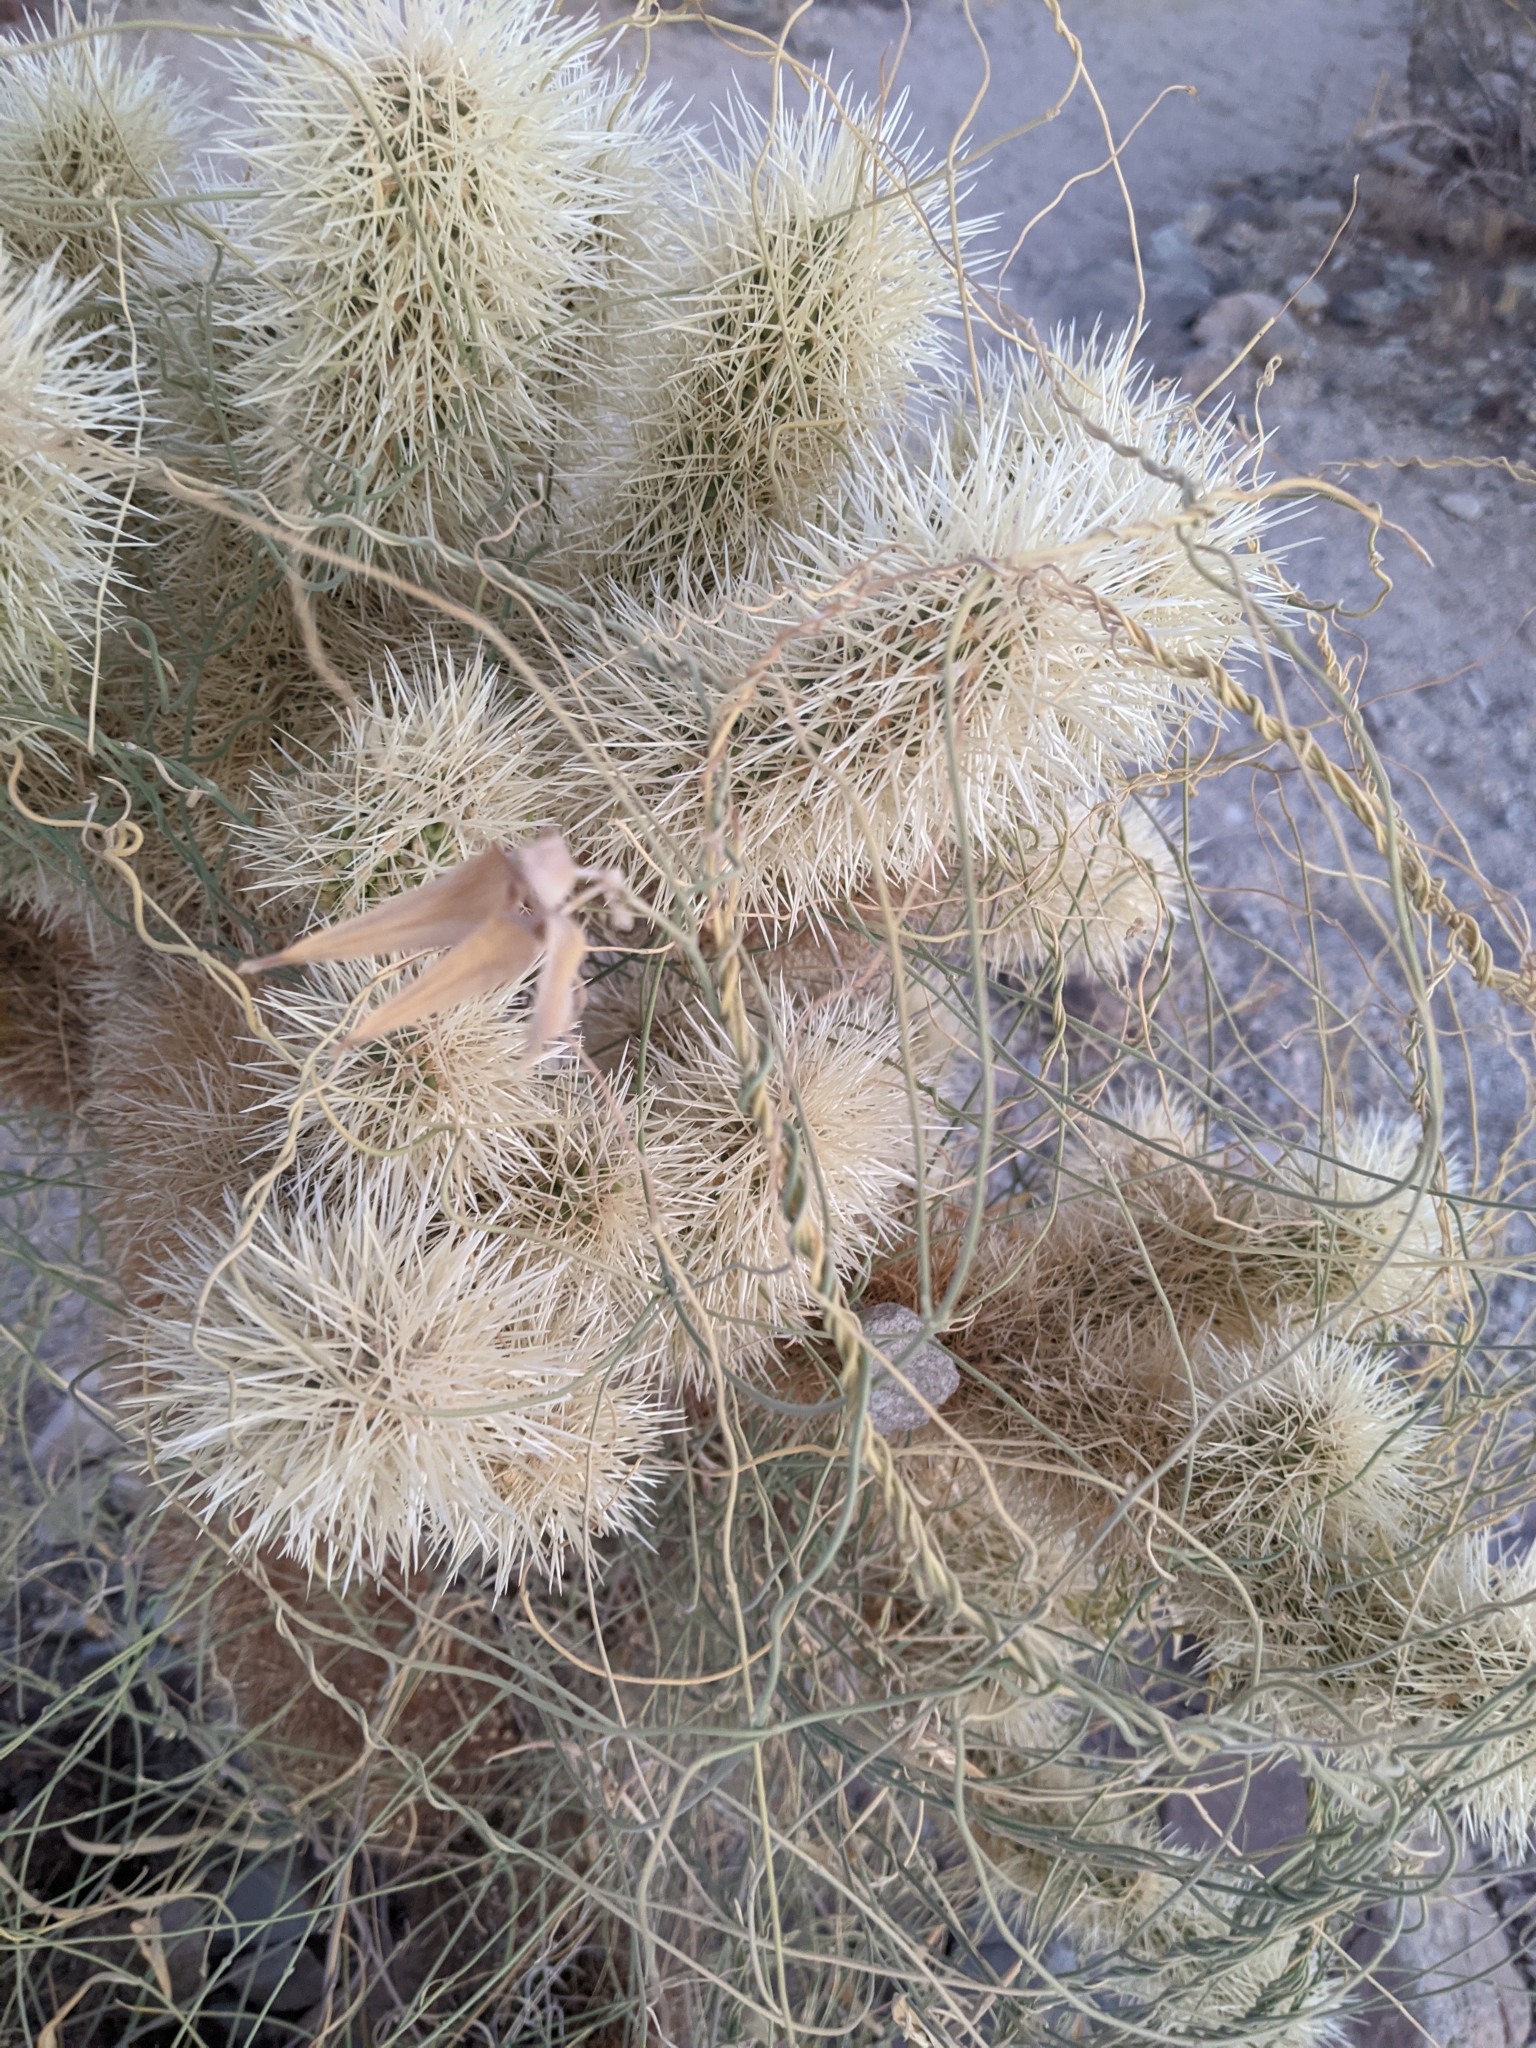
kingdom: Plantae
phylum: Tracheophyta
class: Magnoliopsida
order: Gentianales
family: Apocynaceae
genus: Funastrum
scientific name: Funastrum hirtellum
